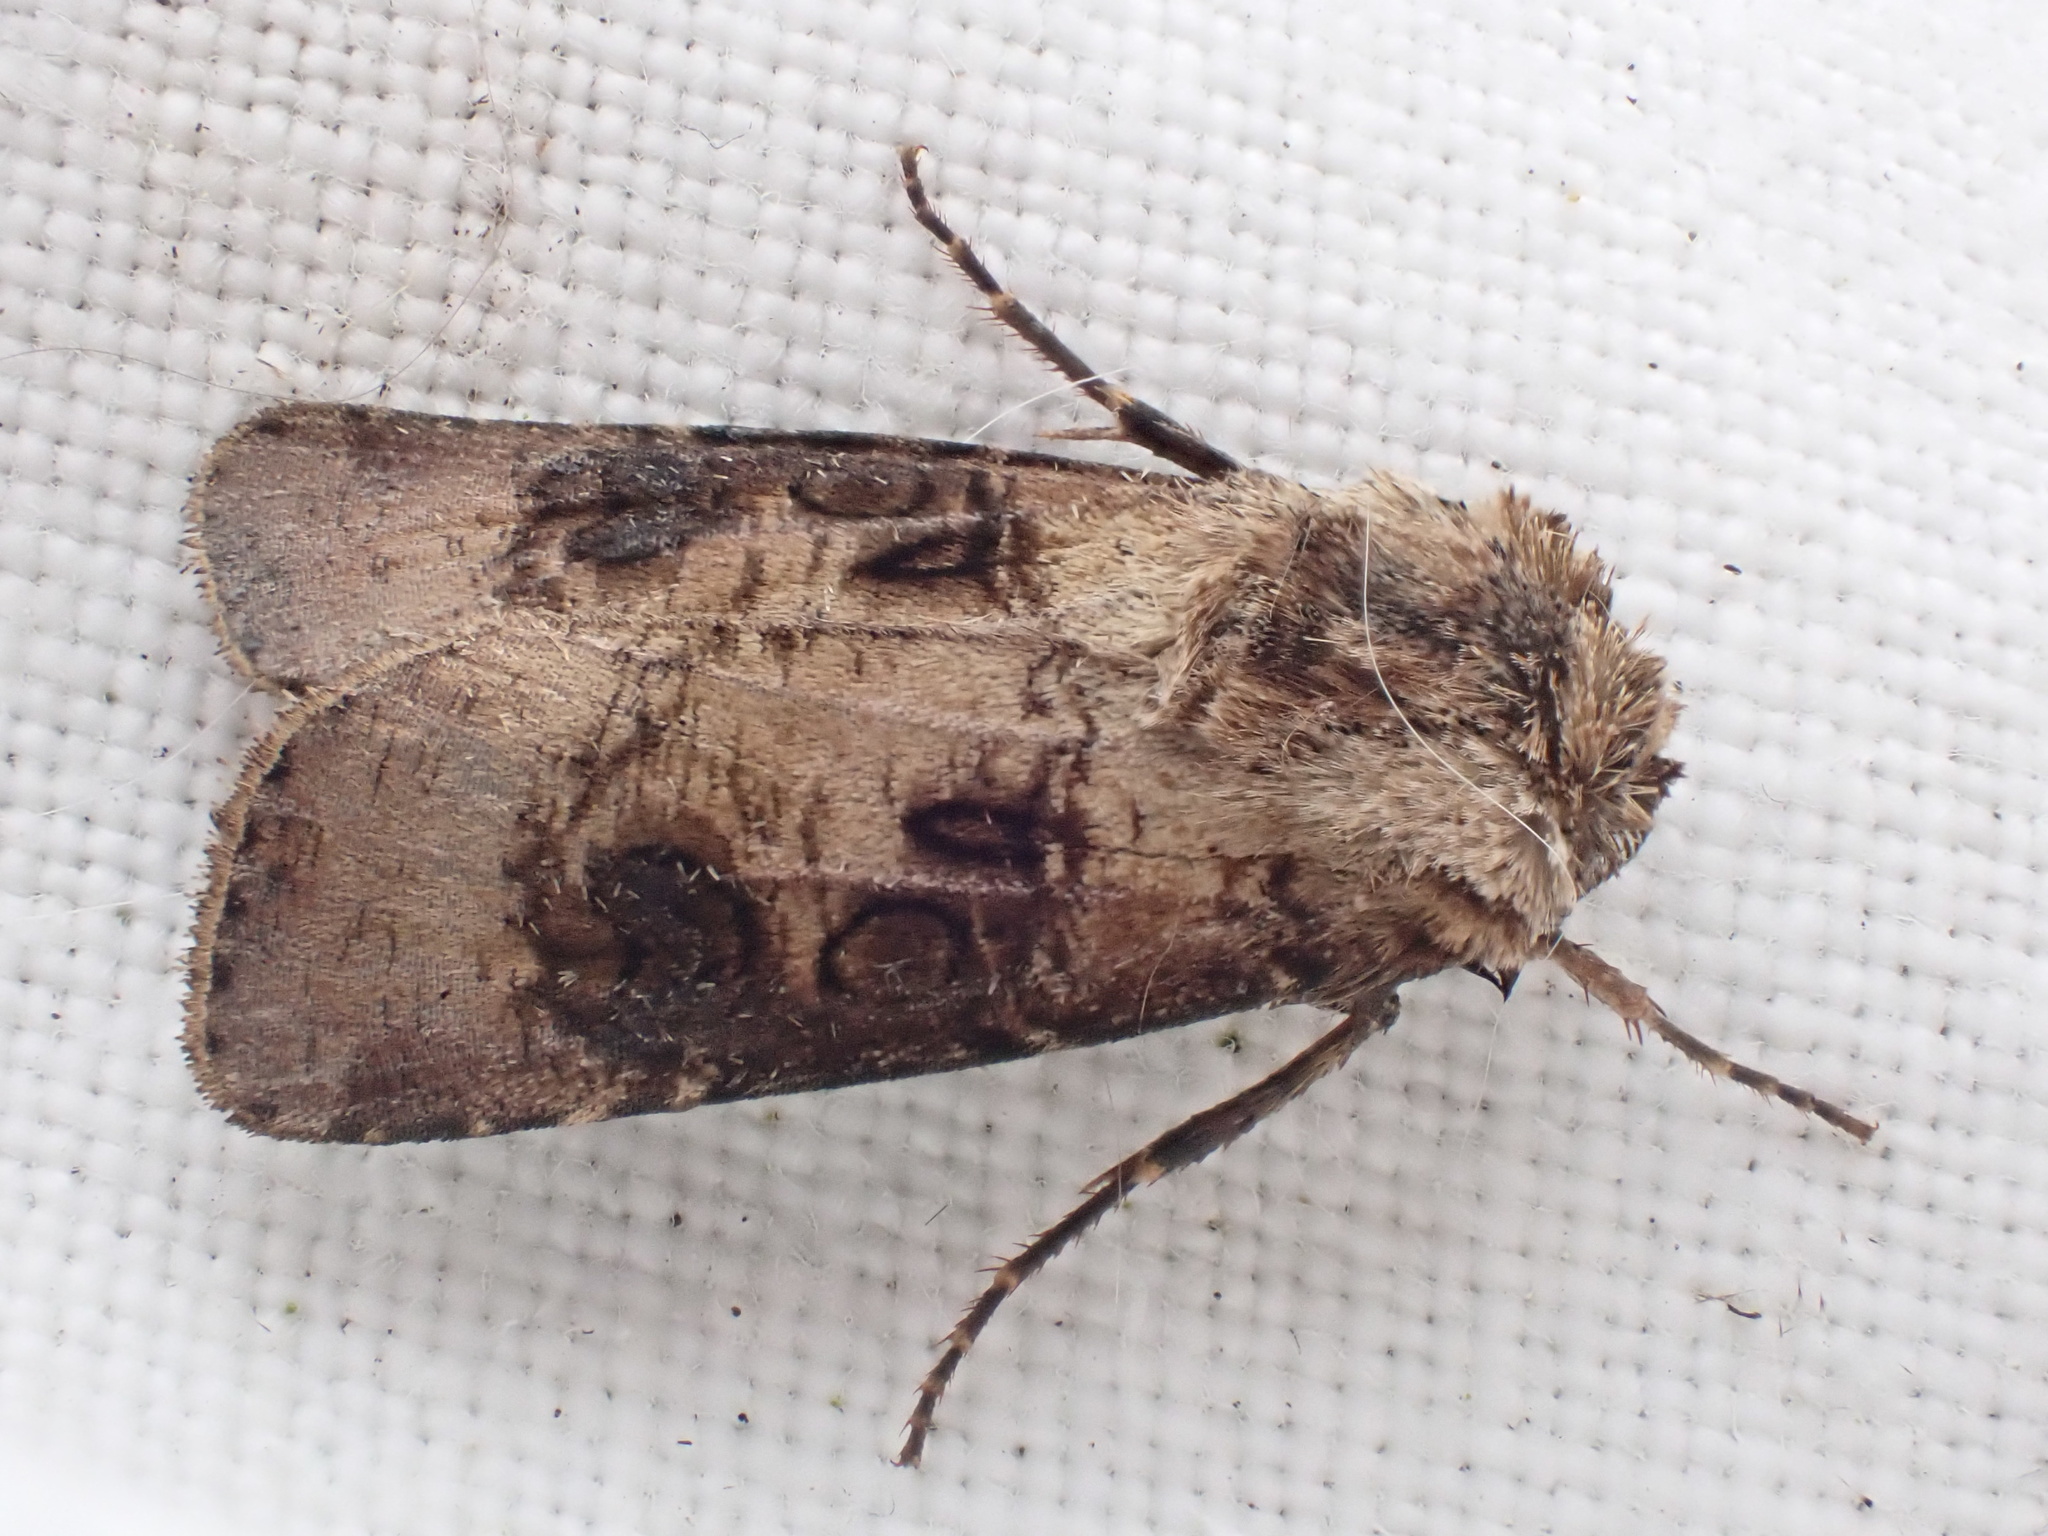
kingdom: Animalia
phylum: Arthropoda
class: Insecta
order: Lepidoptera
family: Noctuidae
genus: Agrotis
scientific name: Agrotis clavis
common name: Heart and club
